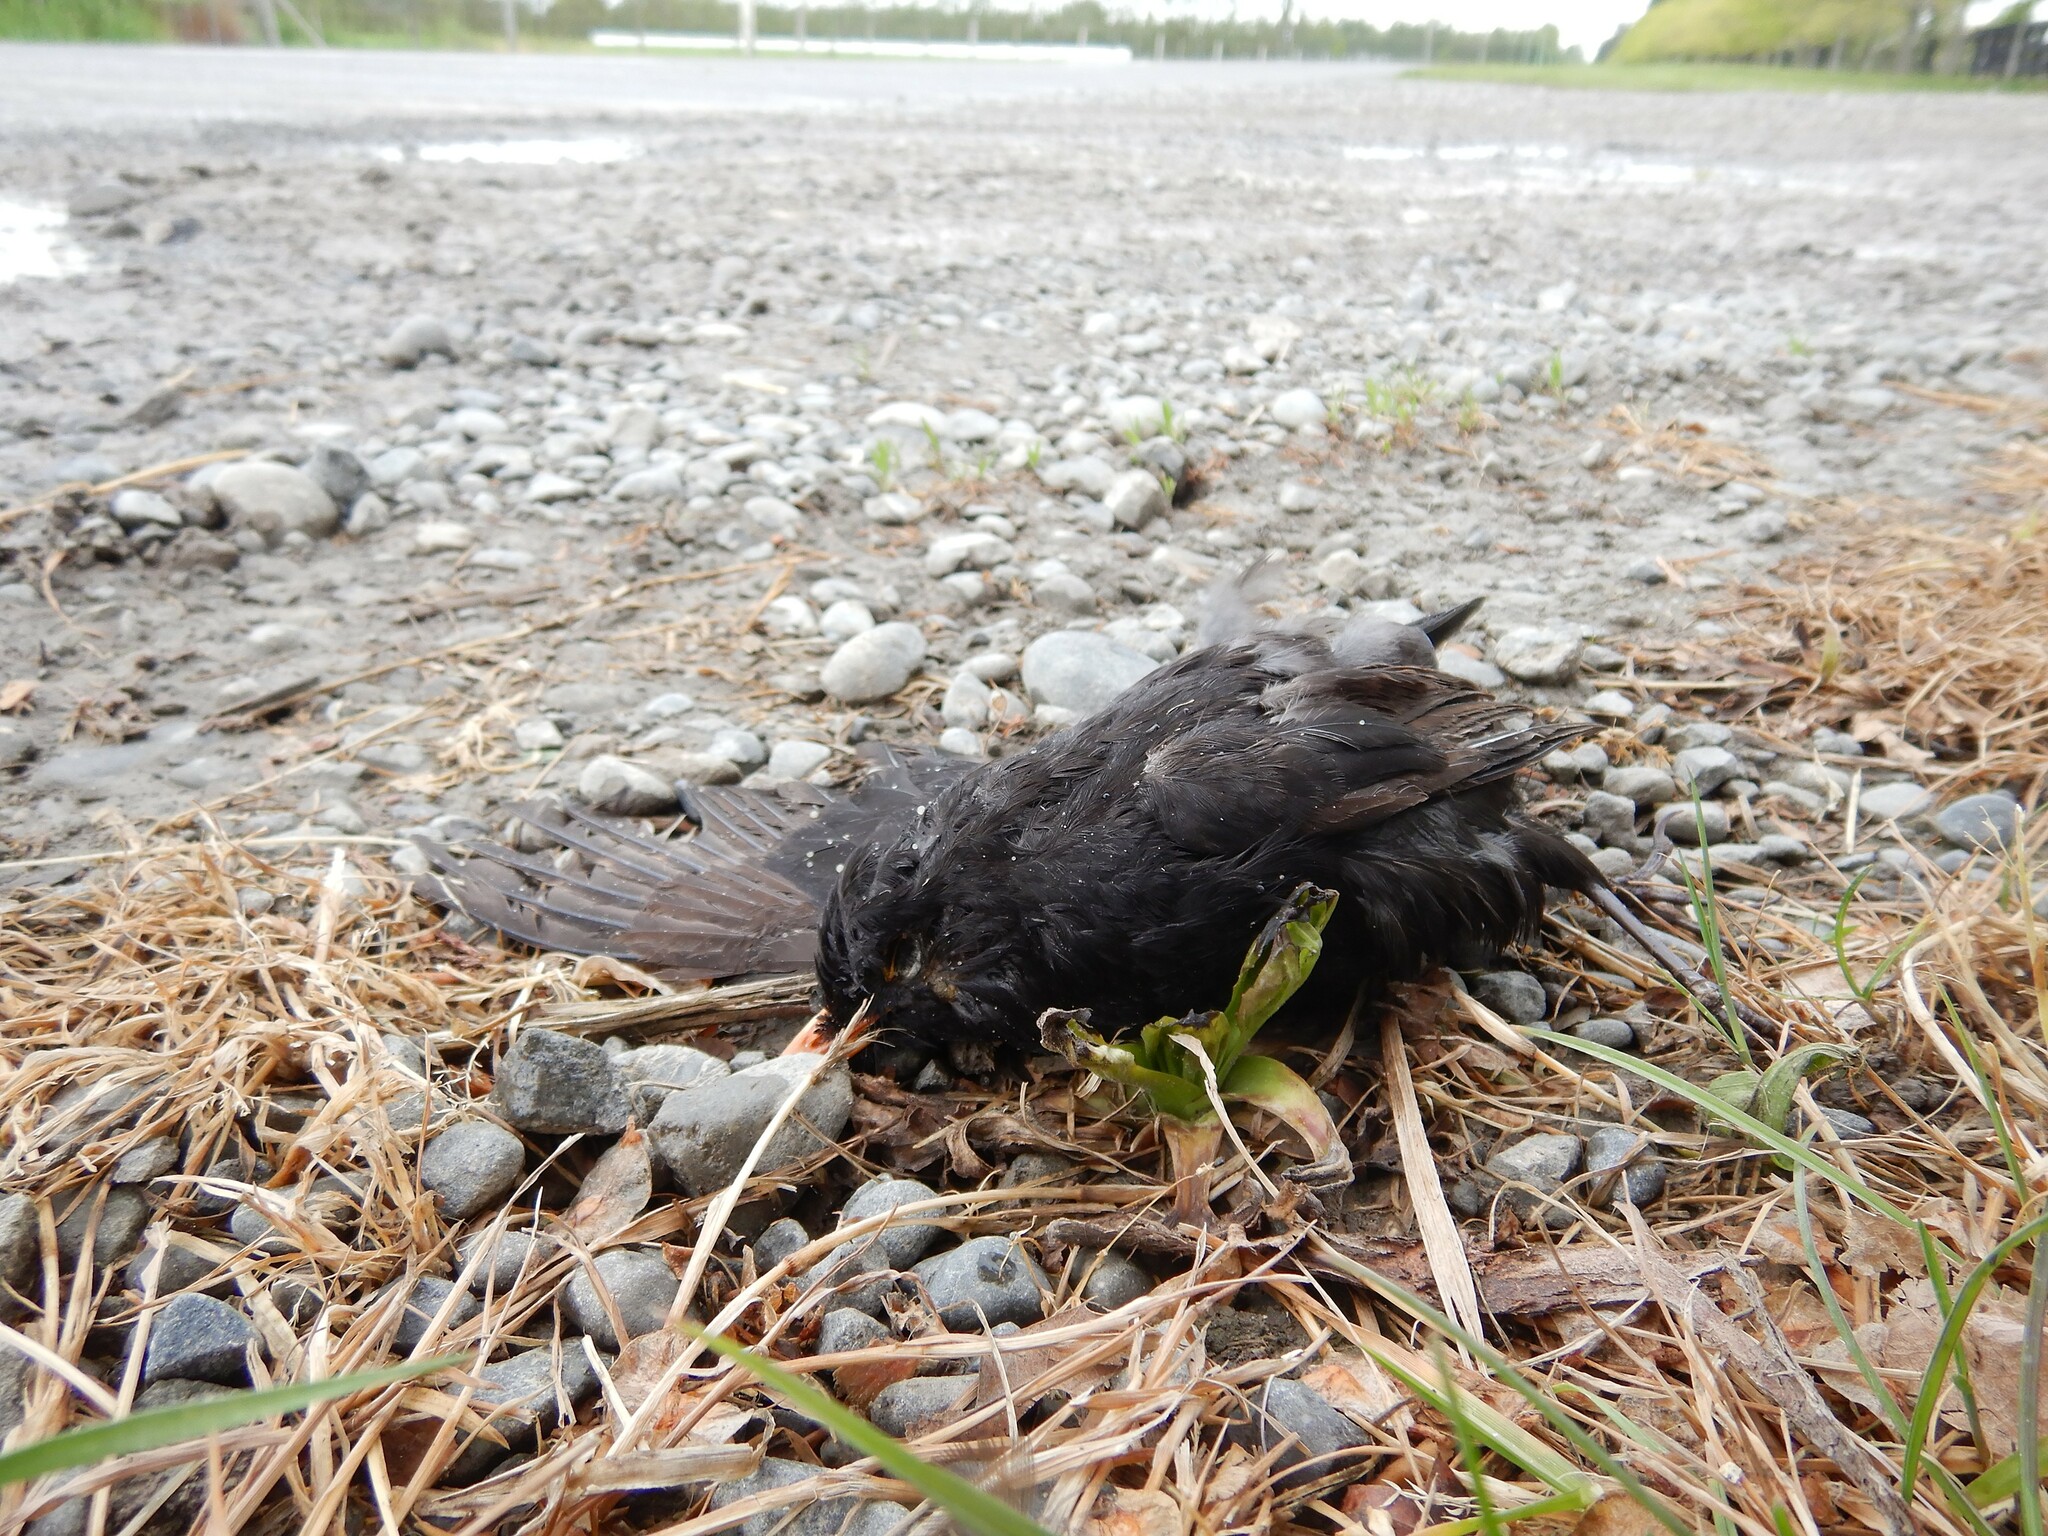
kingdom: Animalia
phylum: Chordata
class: Aves
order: Passeriformes
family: Turdidae
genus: Turdus
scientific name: Turdus merula
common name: Common blackbird
